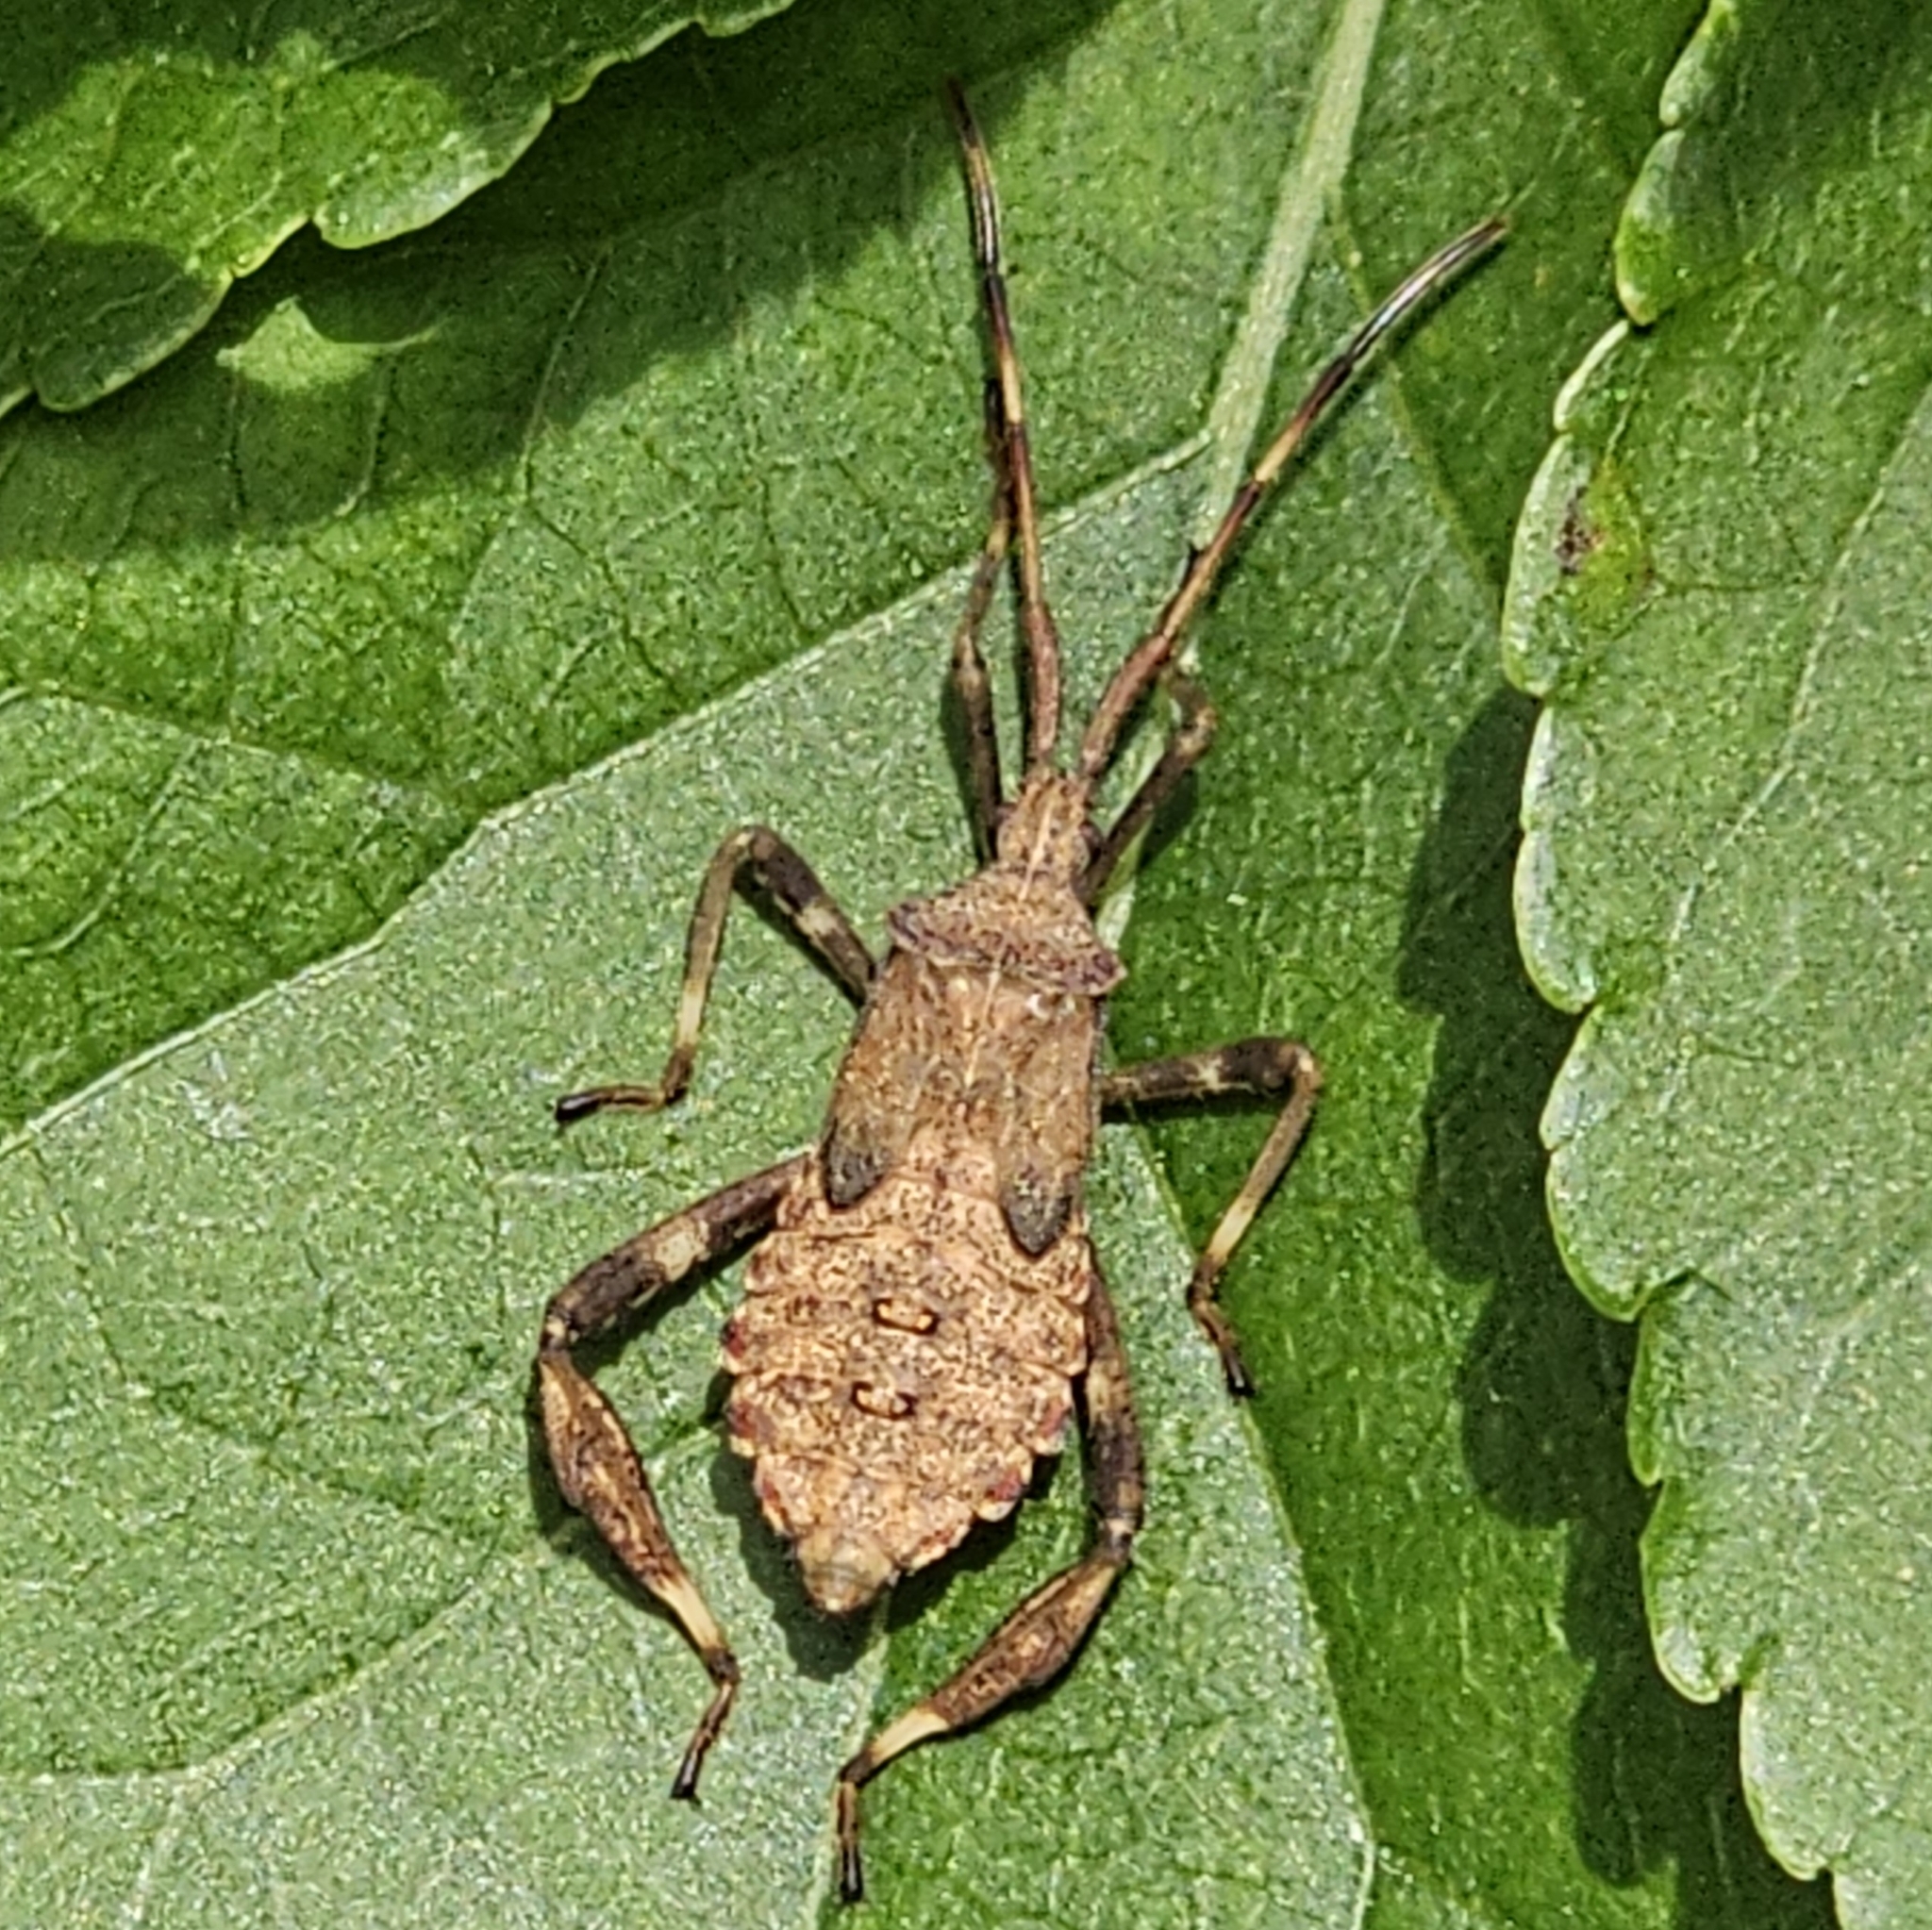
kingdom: Animalia
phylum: Arthropoda
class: Insecta
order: Hemiptera
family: Coreidae
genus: Acanthocephala
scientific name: Acanthocephala terminalis
